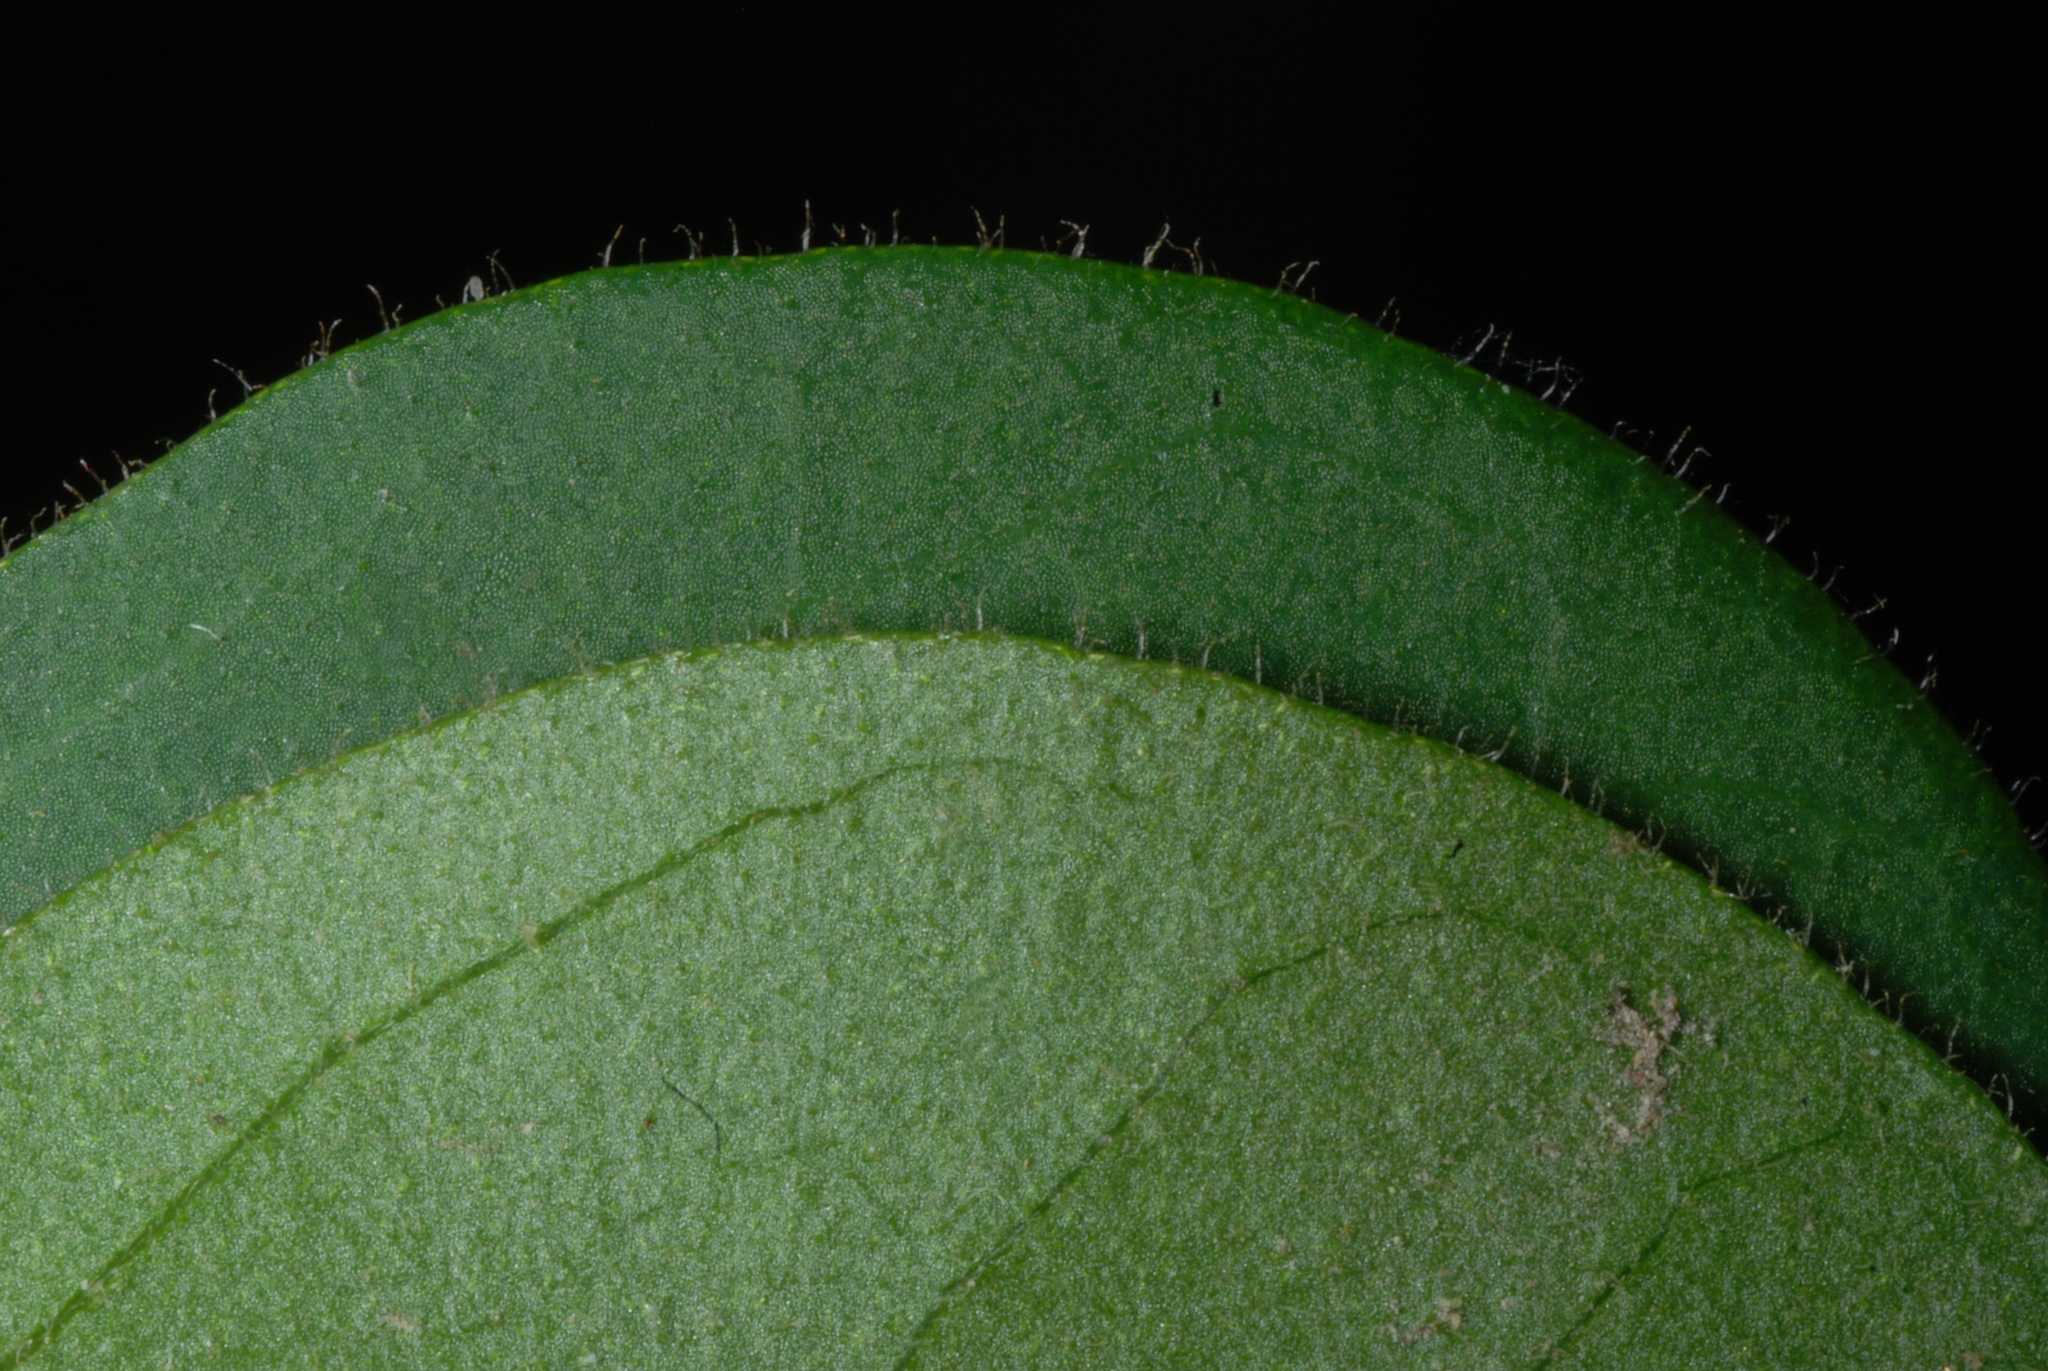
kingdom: Plantae
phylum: Tracheophyta
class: Magnoliopsida
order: Caryophyllales
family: Nyctaginaceae
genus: Pisonia
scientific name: Pisonia aculeata
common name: Cockspur vine
